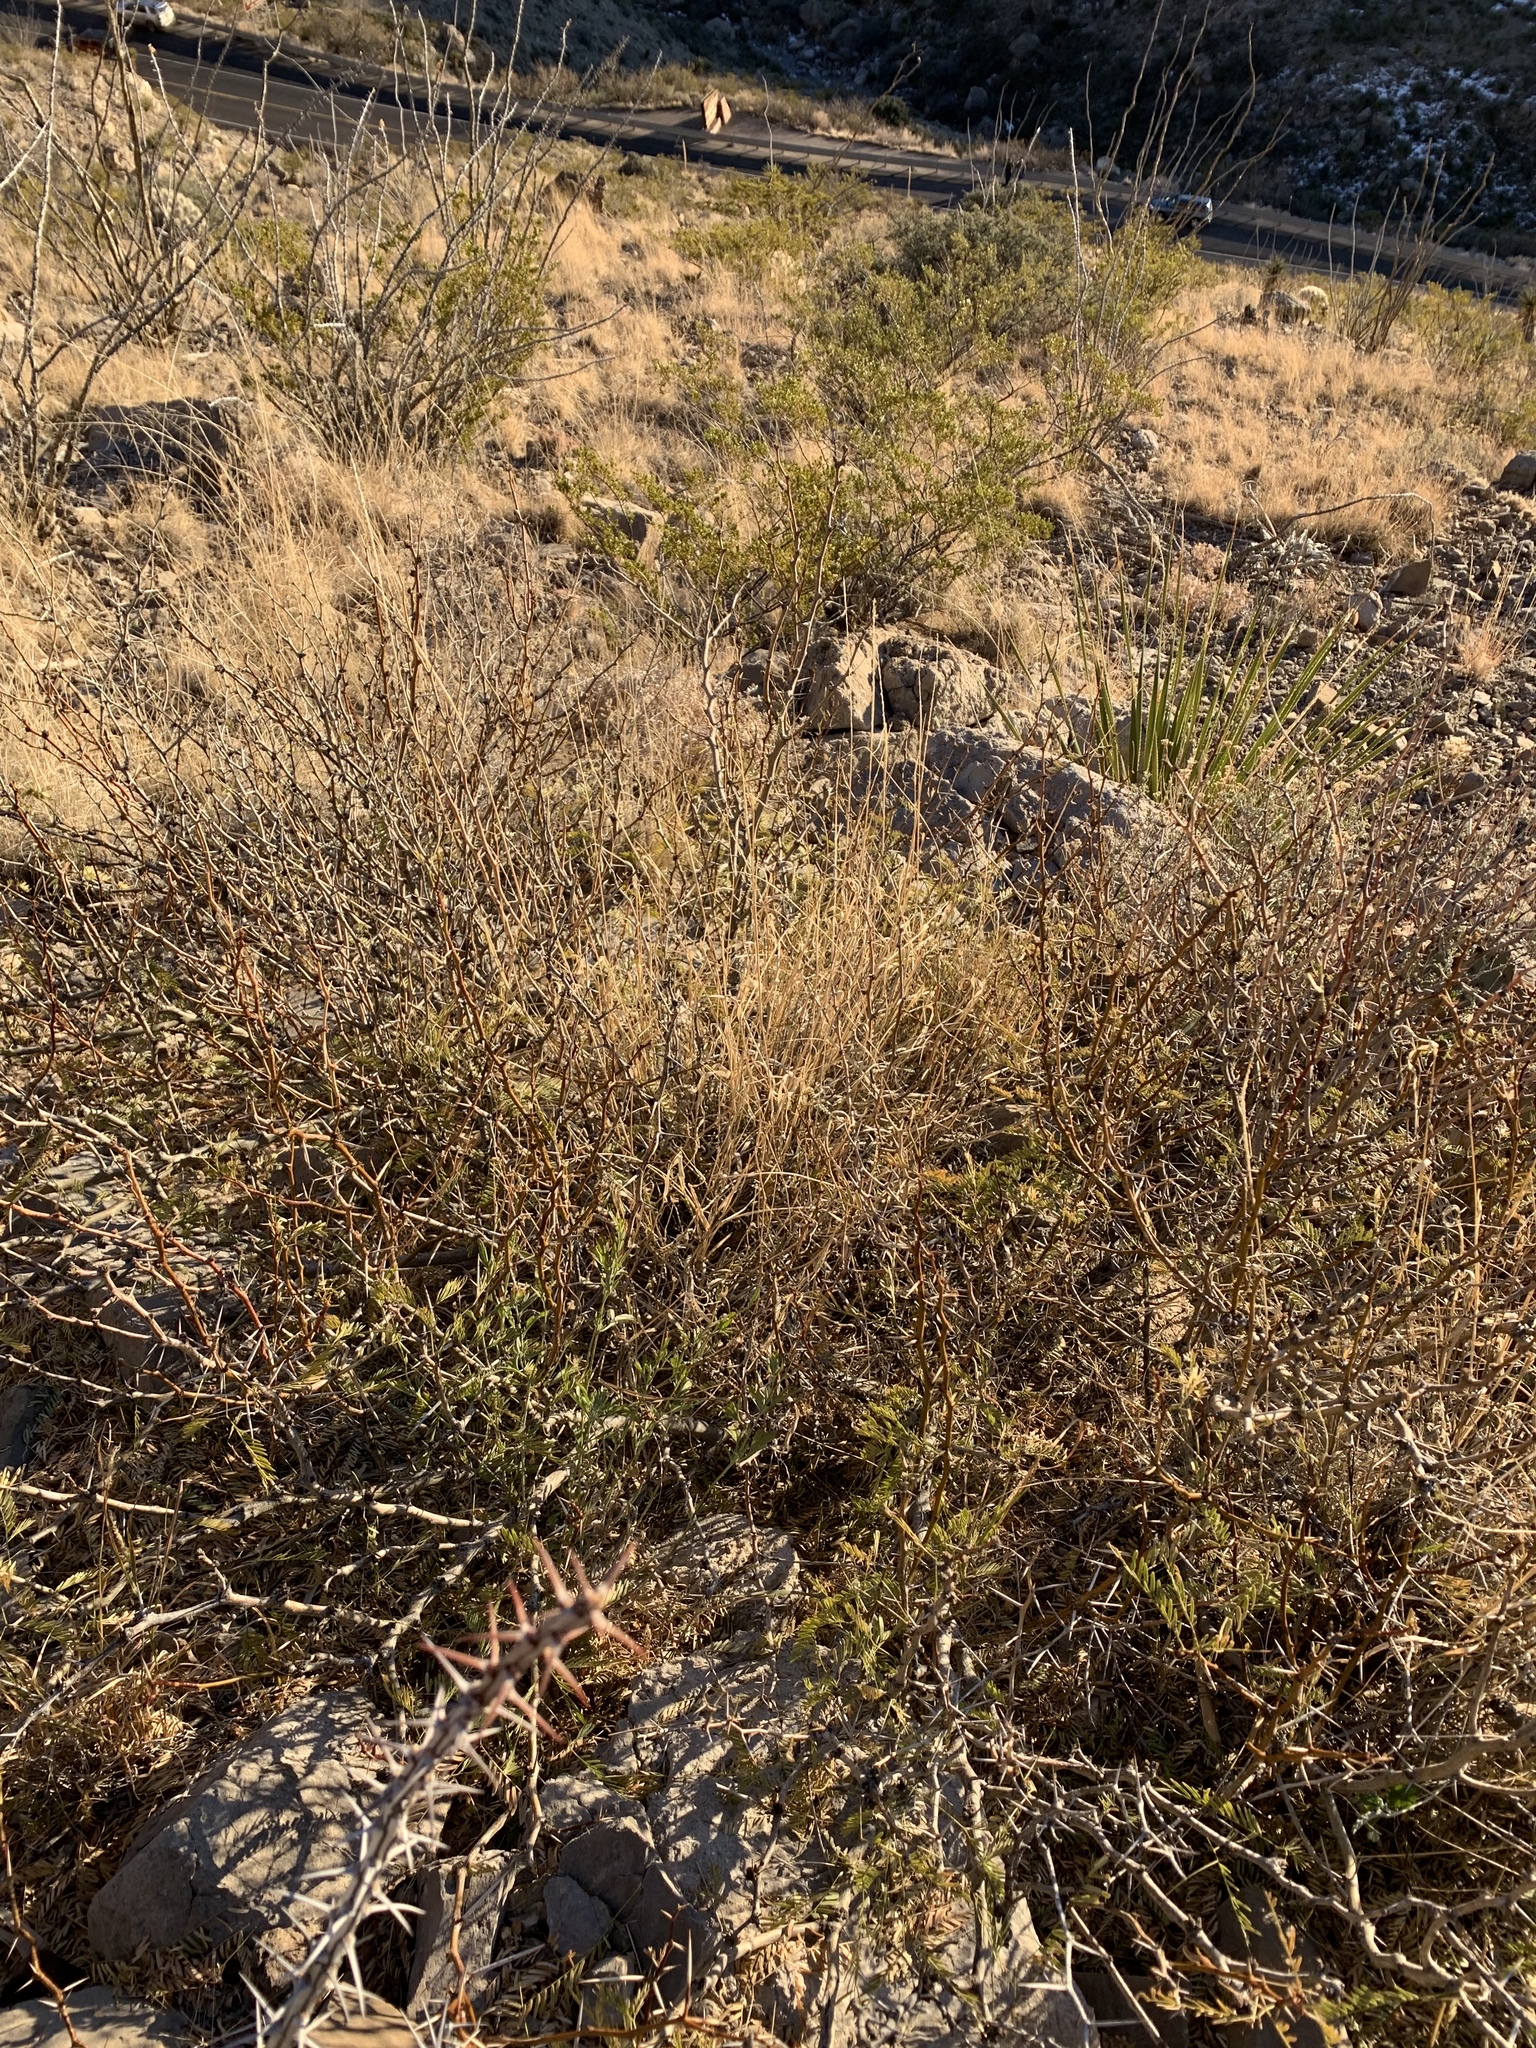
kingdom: Plantae
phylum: Tracheophyta
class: Magnoliopsida
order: Fabales
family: Fabaceae
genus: Prosopis
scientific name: Prosopis glandulosa
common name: Honey mesquite
